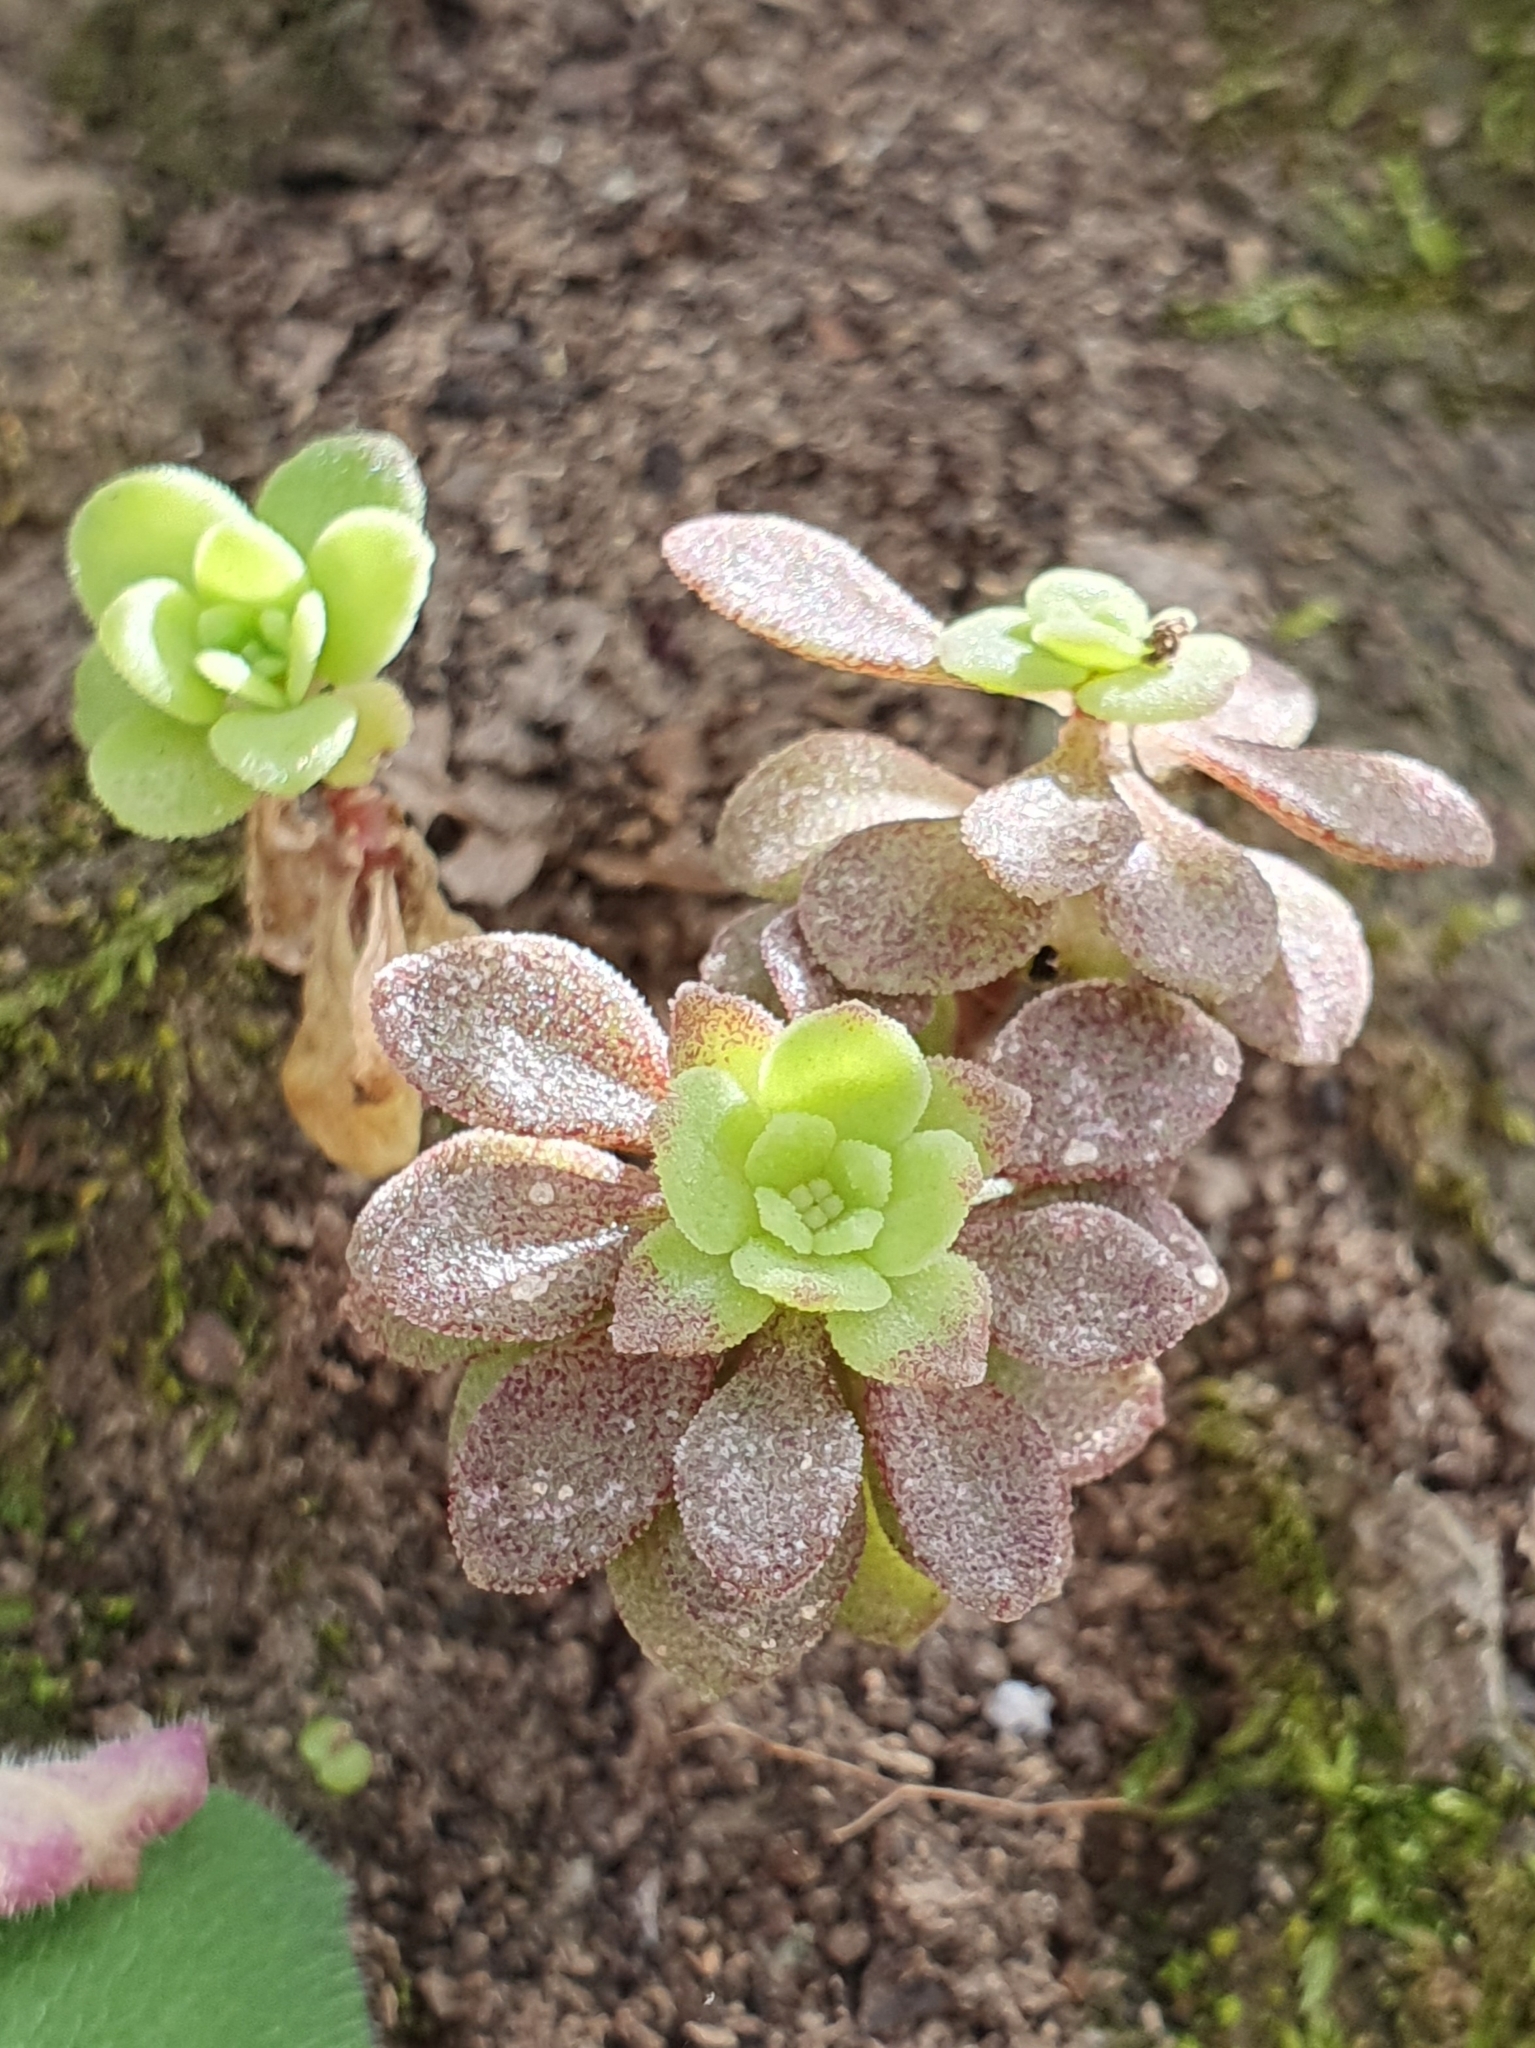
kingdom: Plantae
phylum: Tracheophyta
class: Magnoliopsida
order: Saxifragales
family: Crassulaceae
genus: Sedum
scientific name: Sedum cepaea
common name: Pink stonecrop
